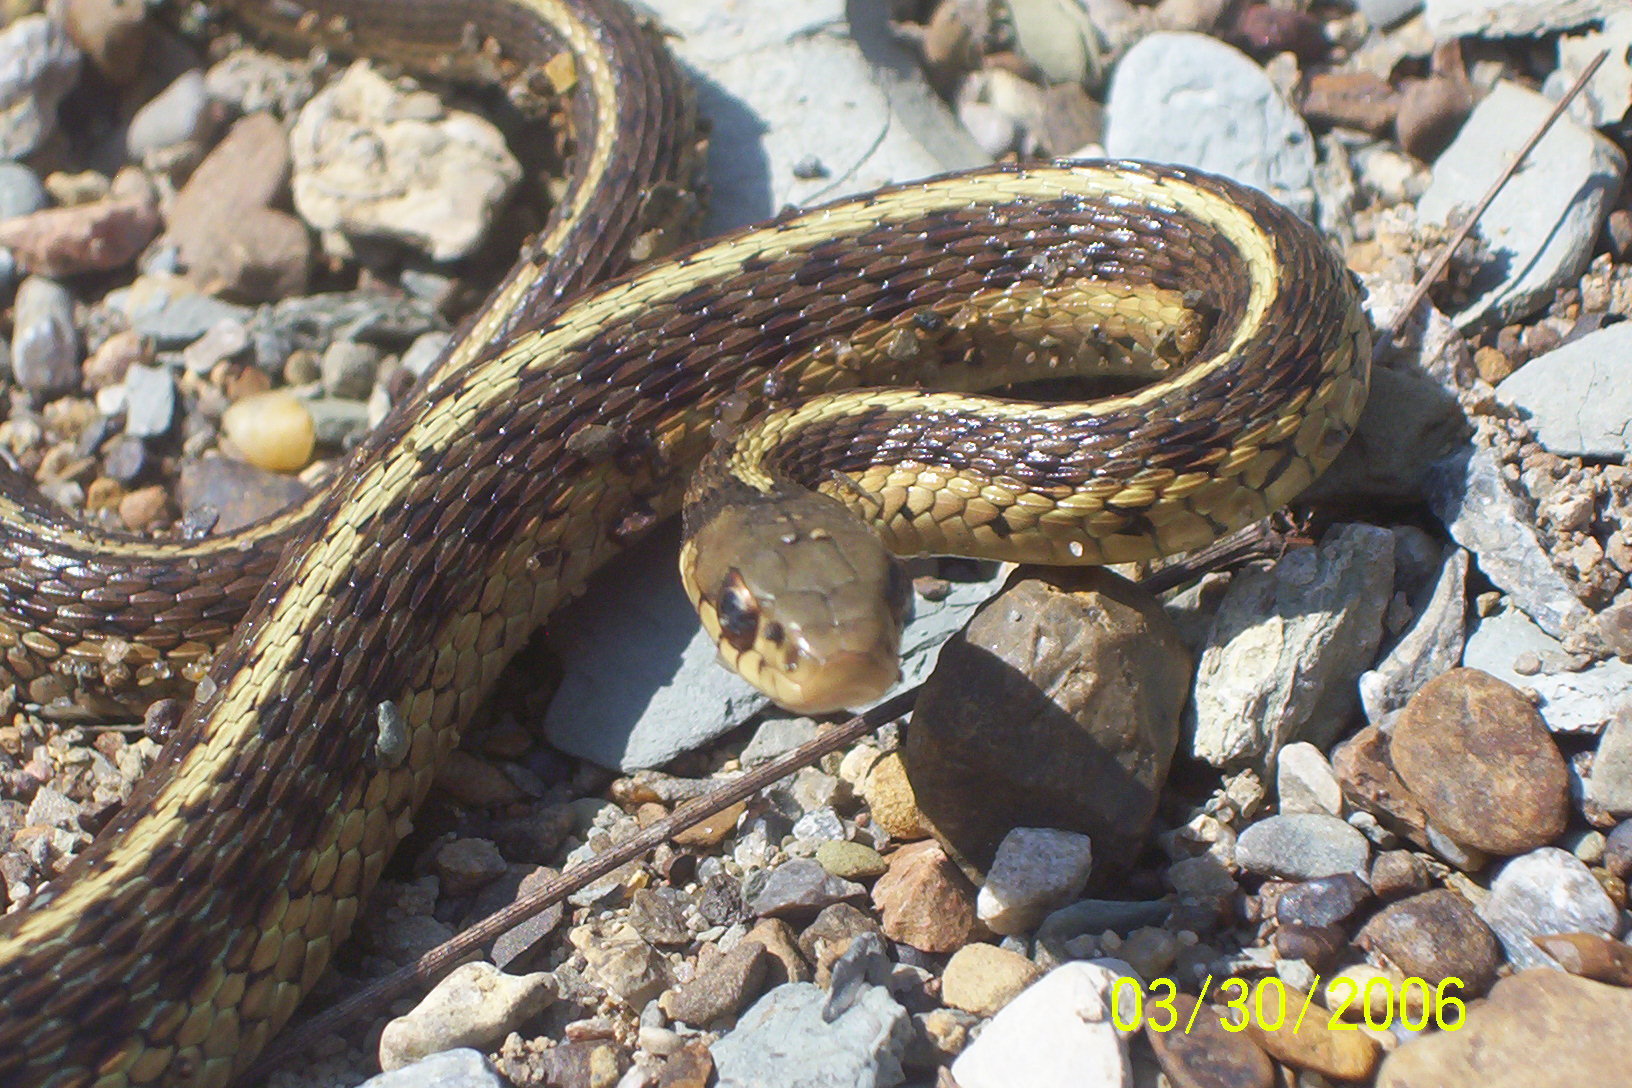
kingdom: Animalia
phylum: Chordata
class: Squamata
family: Colubridae
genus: Thamnophis
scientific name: Thamnophis sirtalis
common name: Common garter snake
